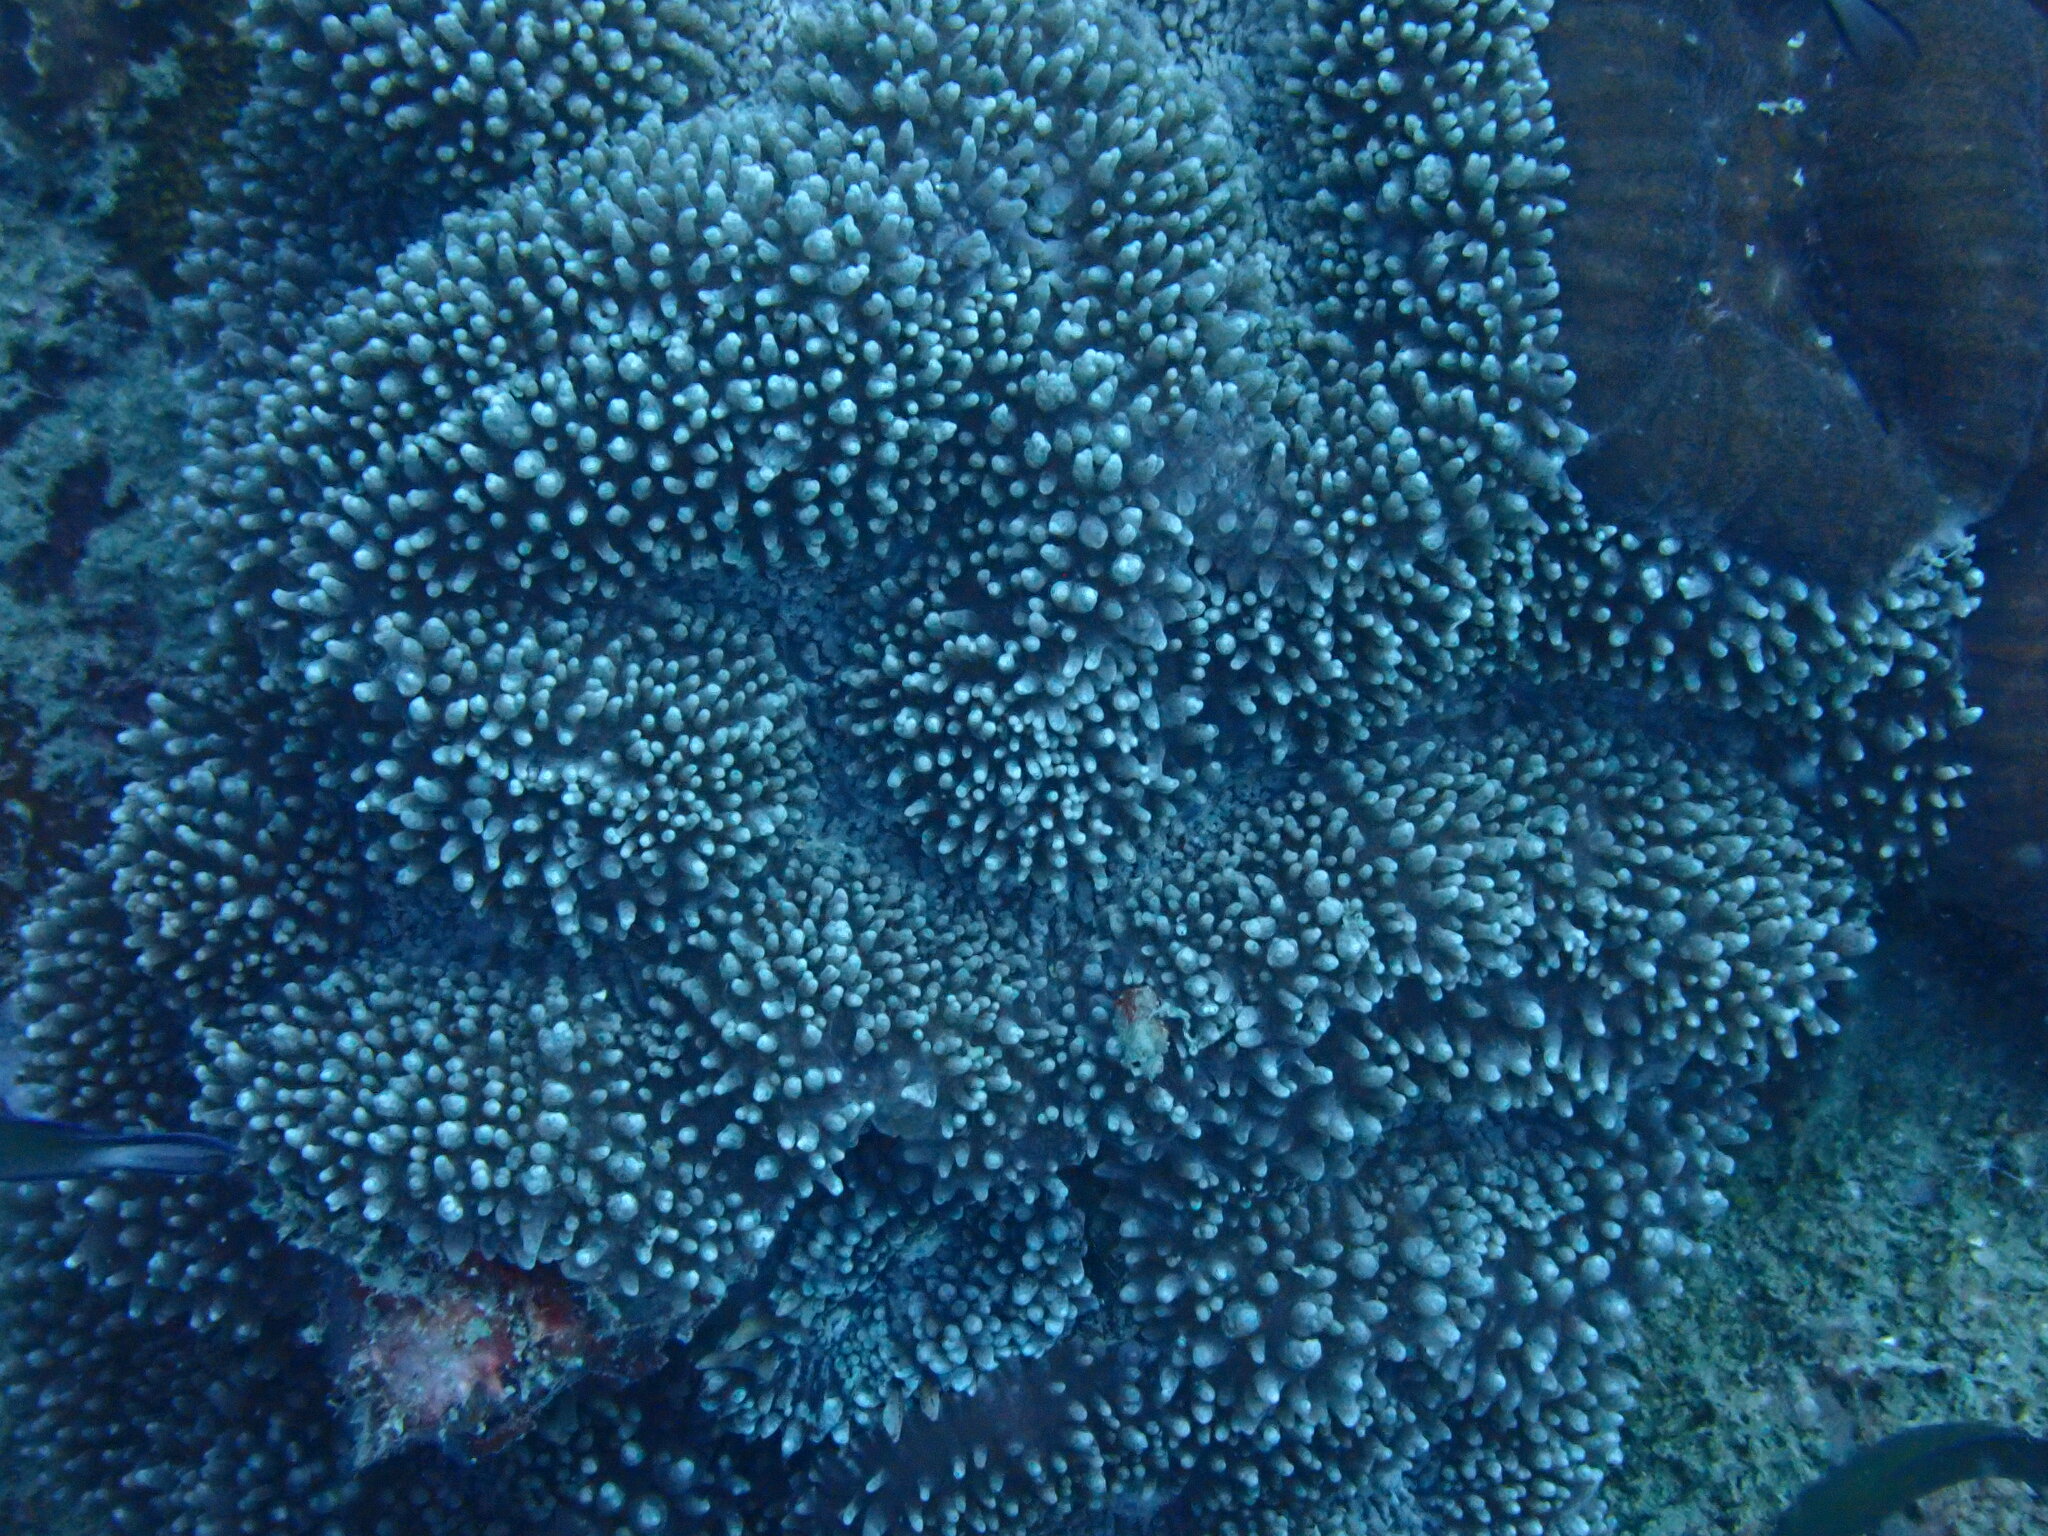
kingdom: Animalia
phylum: Cnidaria
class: Anthozoa
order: Scleractinia
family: Lobophylliidae
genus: Lobophyllia
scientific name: Lobophyllia flabelliformis
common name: Lobed cactus coral
